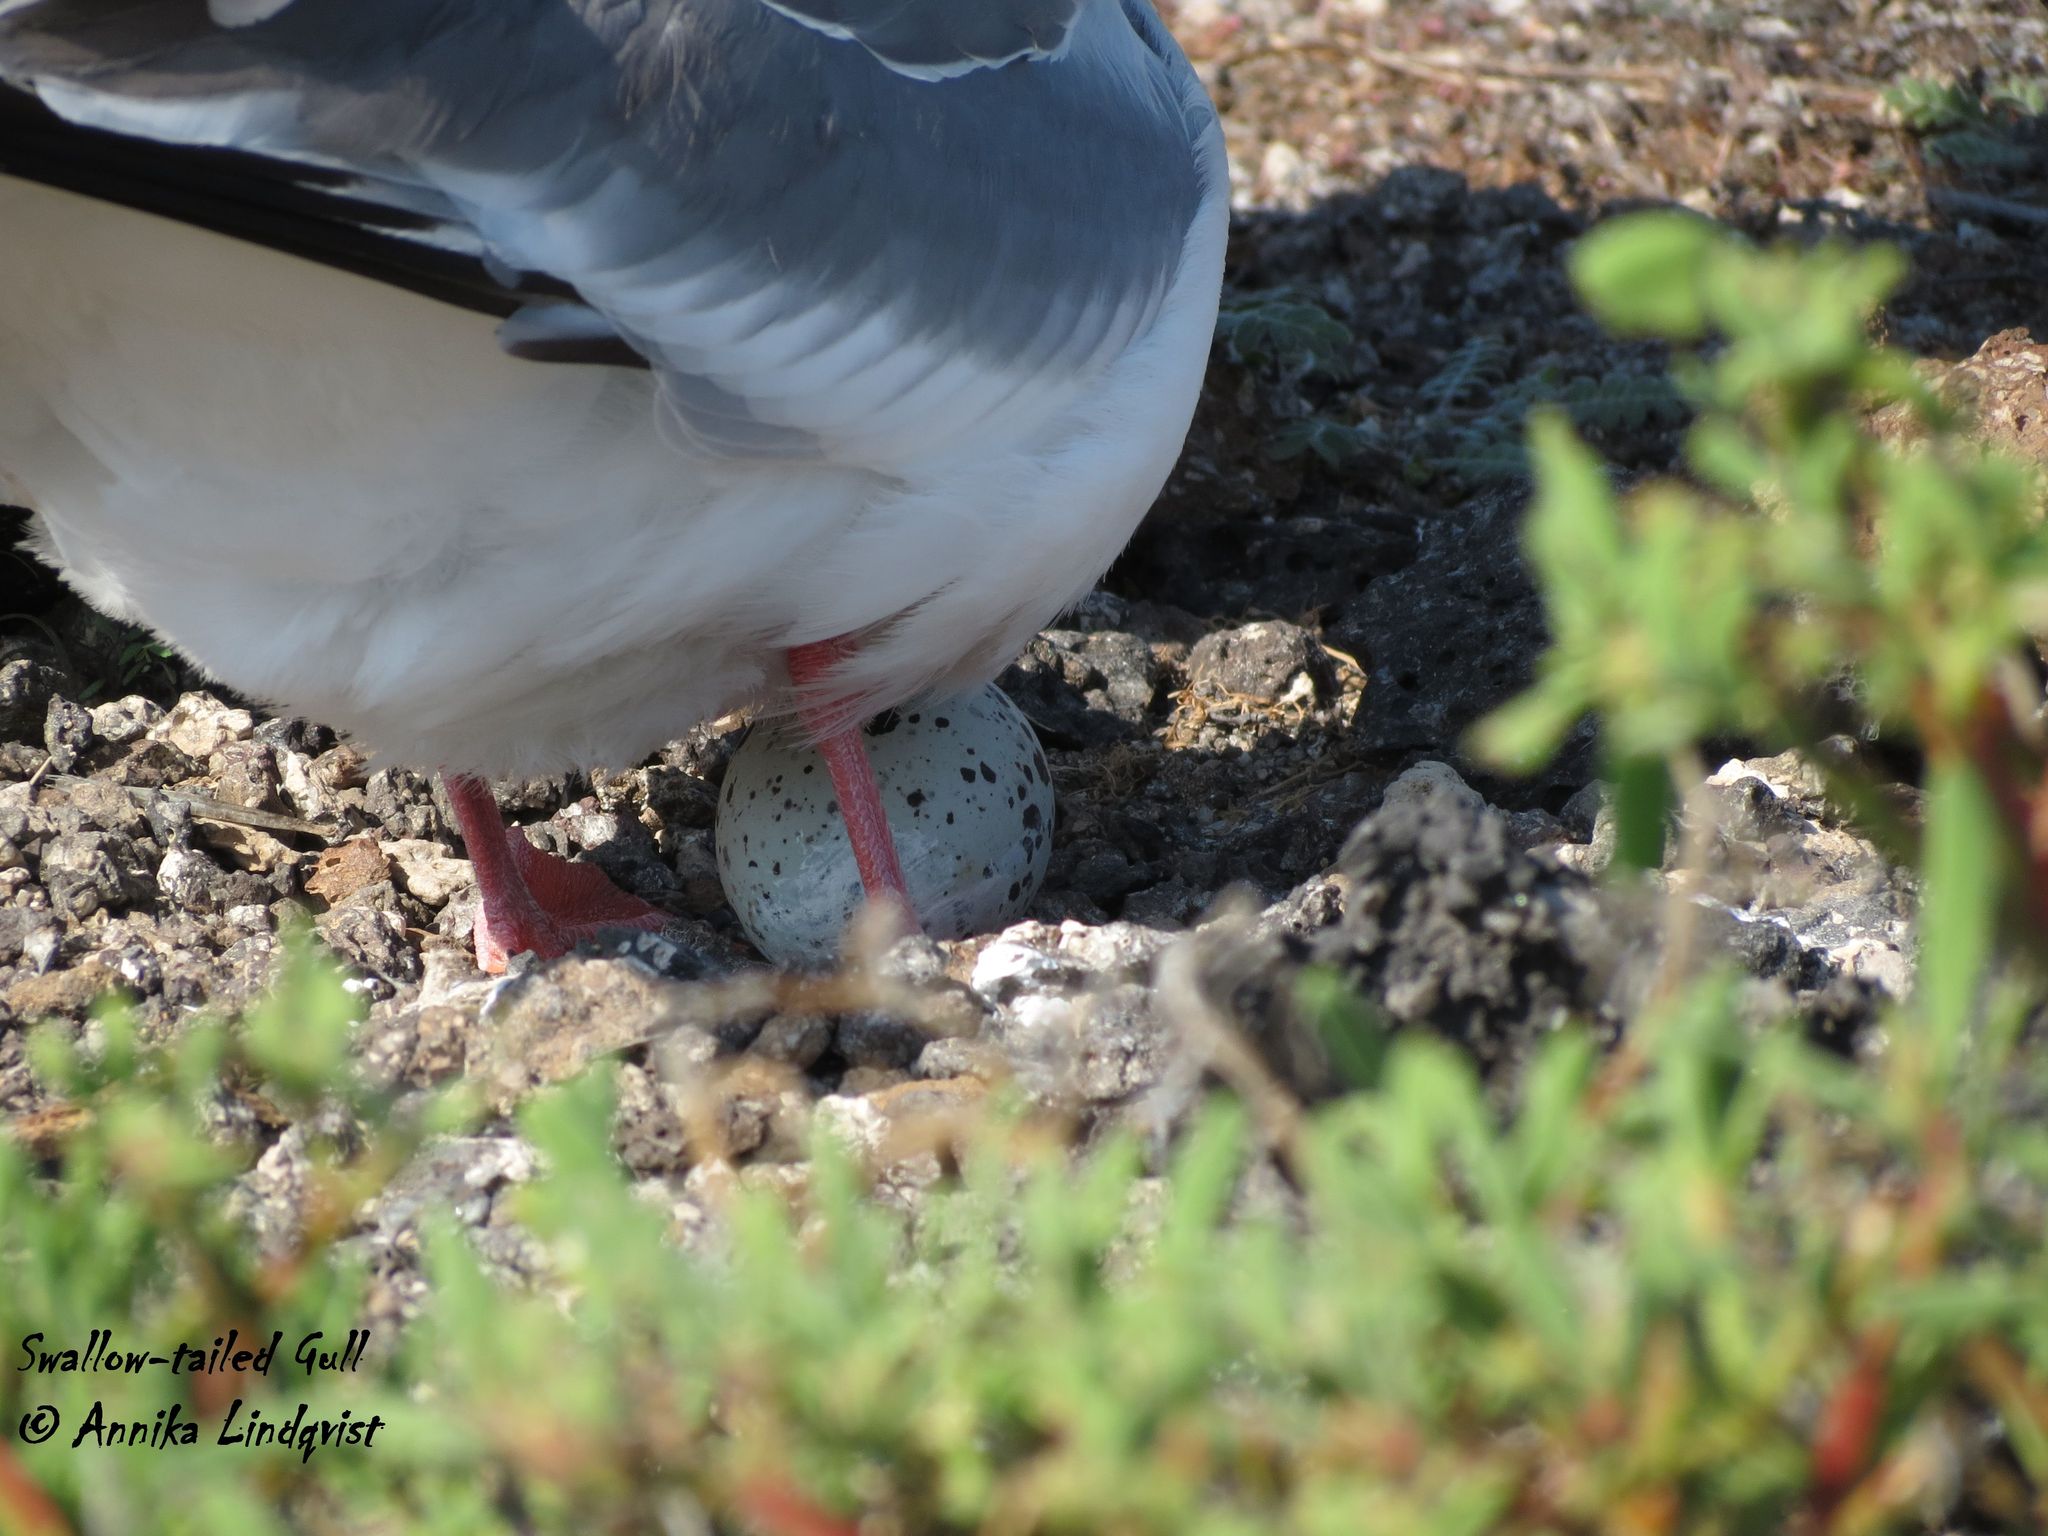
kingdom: Animalia
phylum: Chordata
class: Aves
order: Charadriiformes
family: Laridae
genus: Creagrus
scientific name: Creagrus furcatus
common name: Swallow-tailed gull
